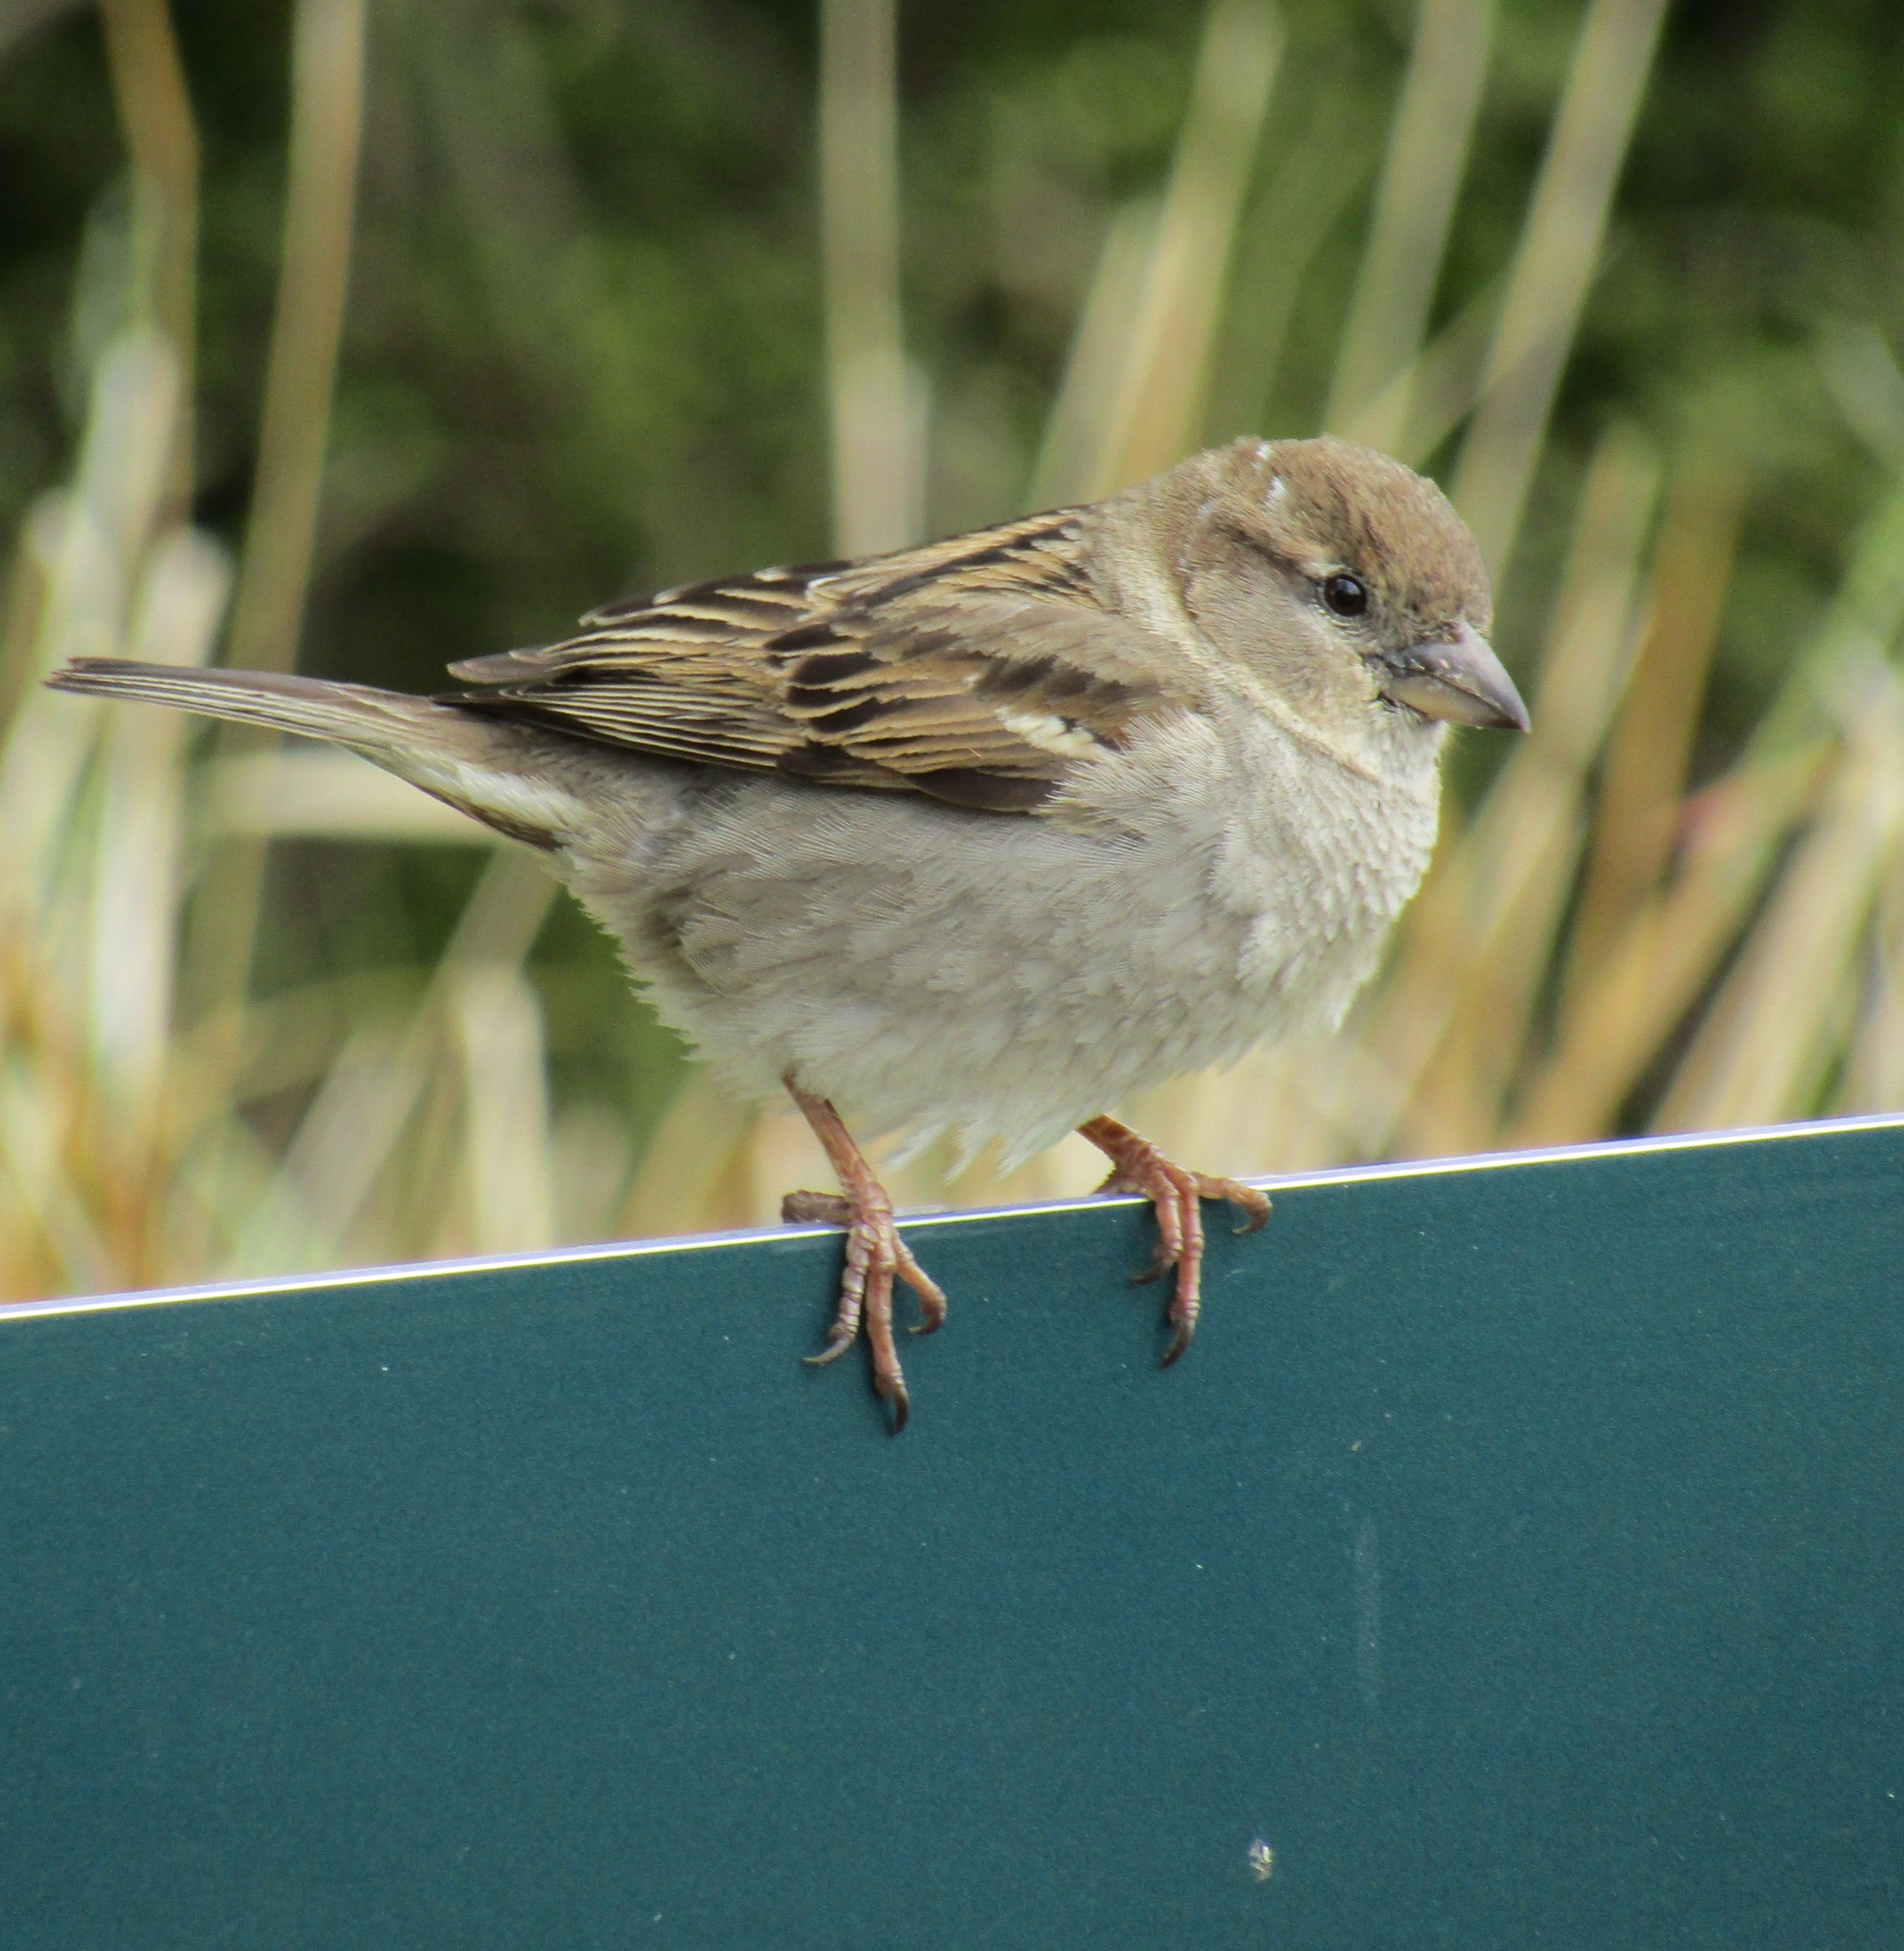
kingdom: Animalia
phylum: Chordata
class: Aves
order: Passeriformes
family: Passeridae
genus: Passer
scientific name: Passer domesticus
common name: House sparrow
